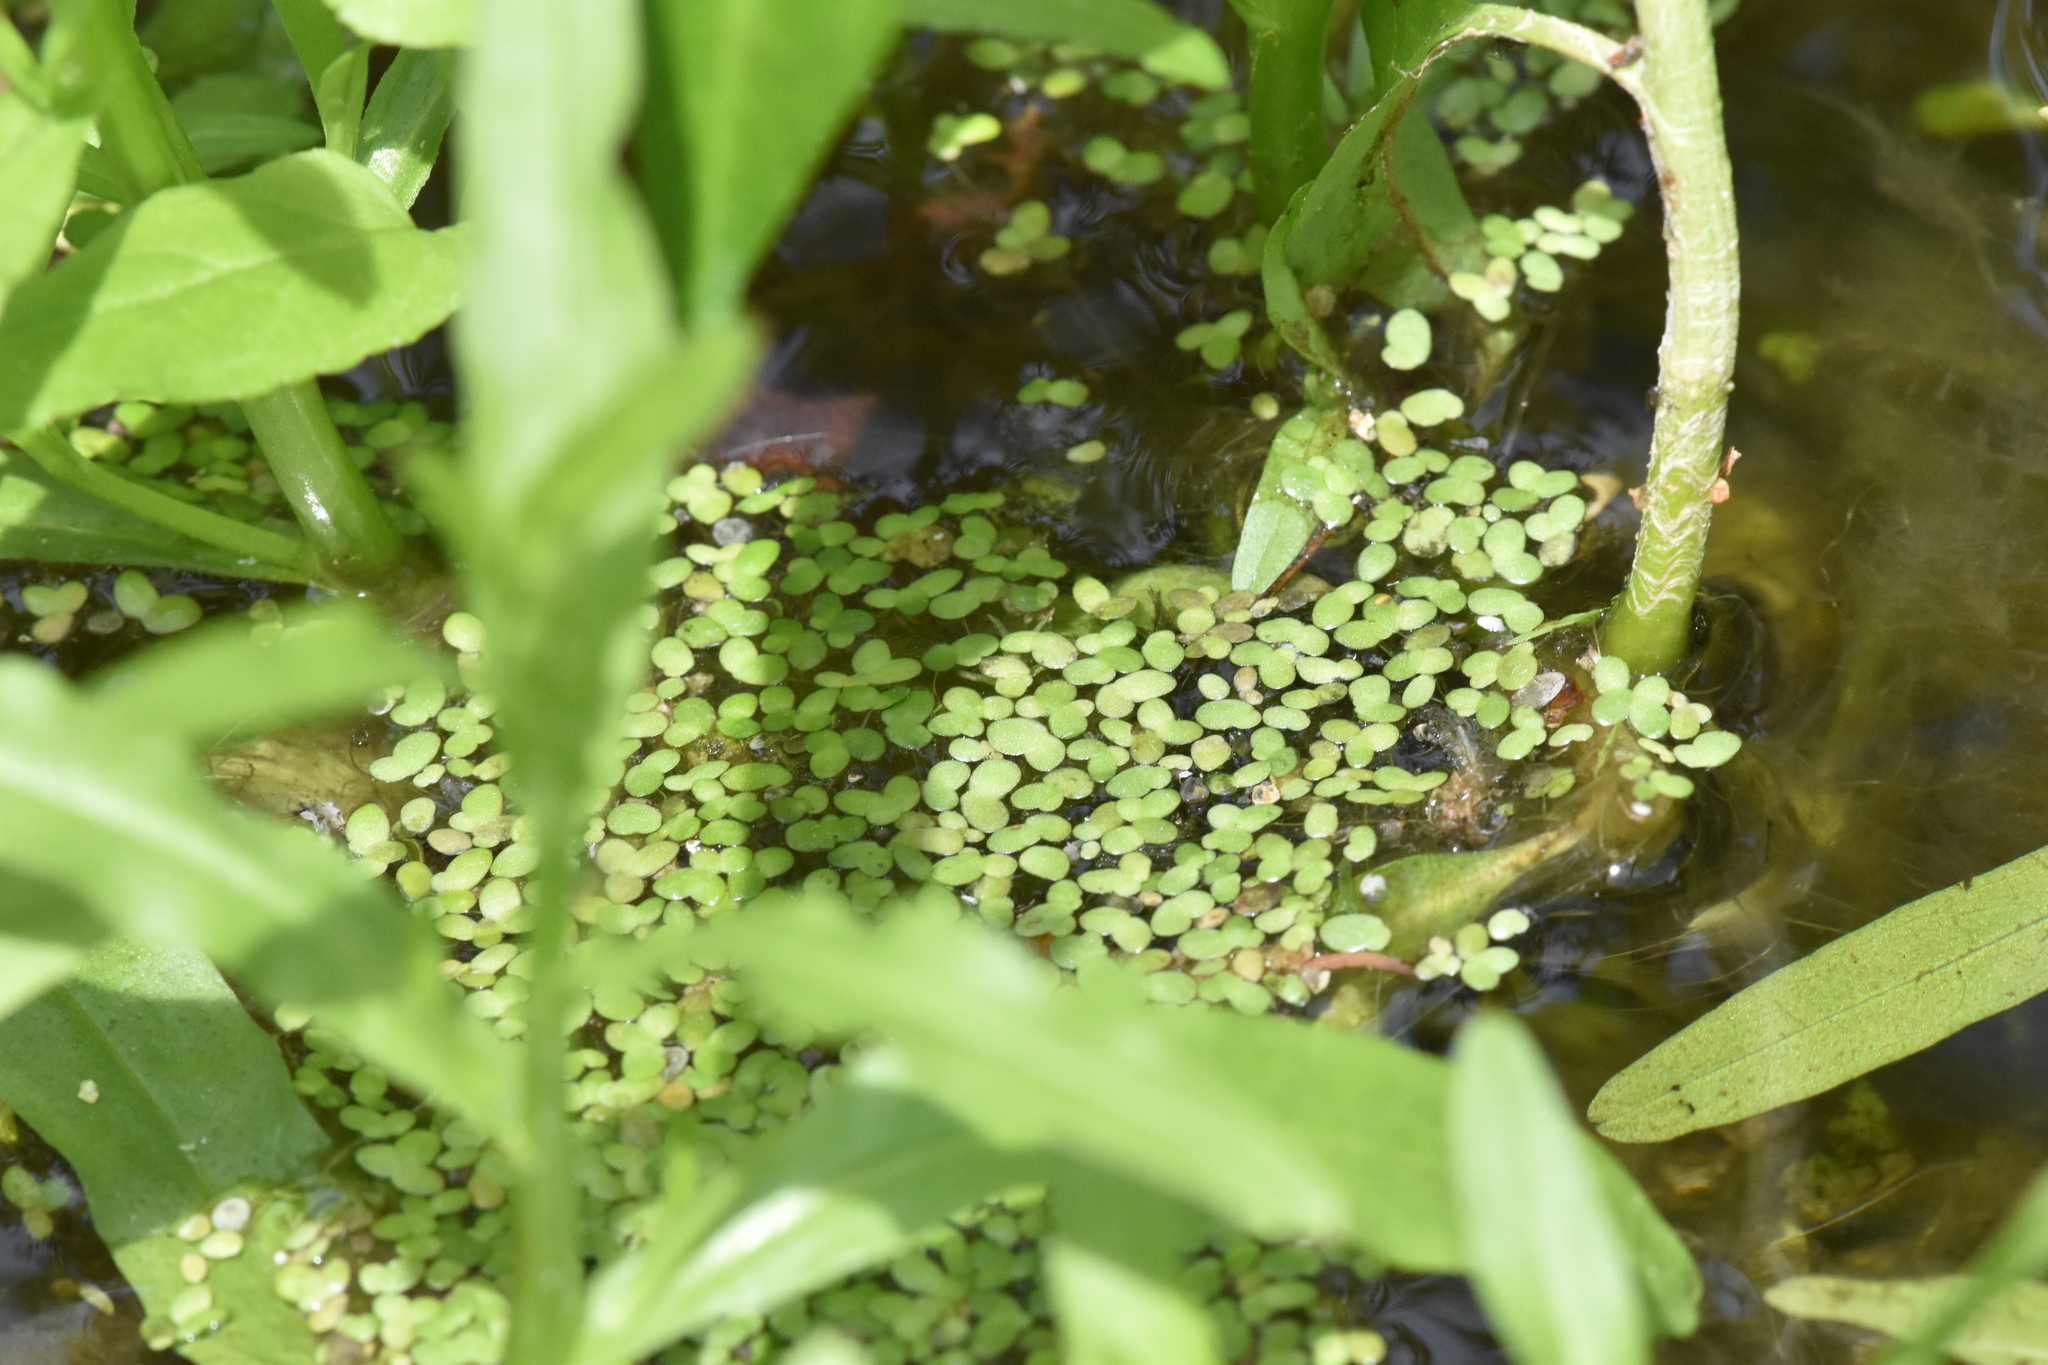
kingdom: Plantae
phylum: Tracheophyta
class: Liliopsida
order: Alismatales
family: Araceae
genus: Lemna
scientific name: Lemna minor
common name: Common duckweed
